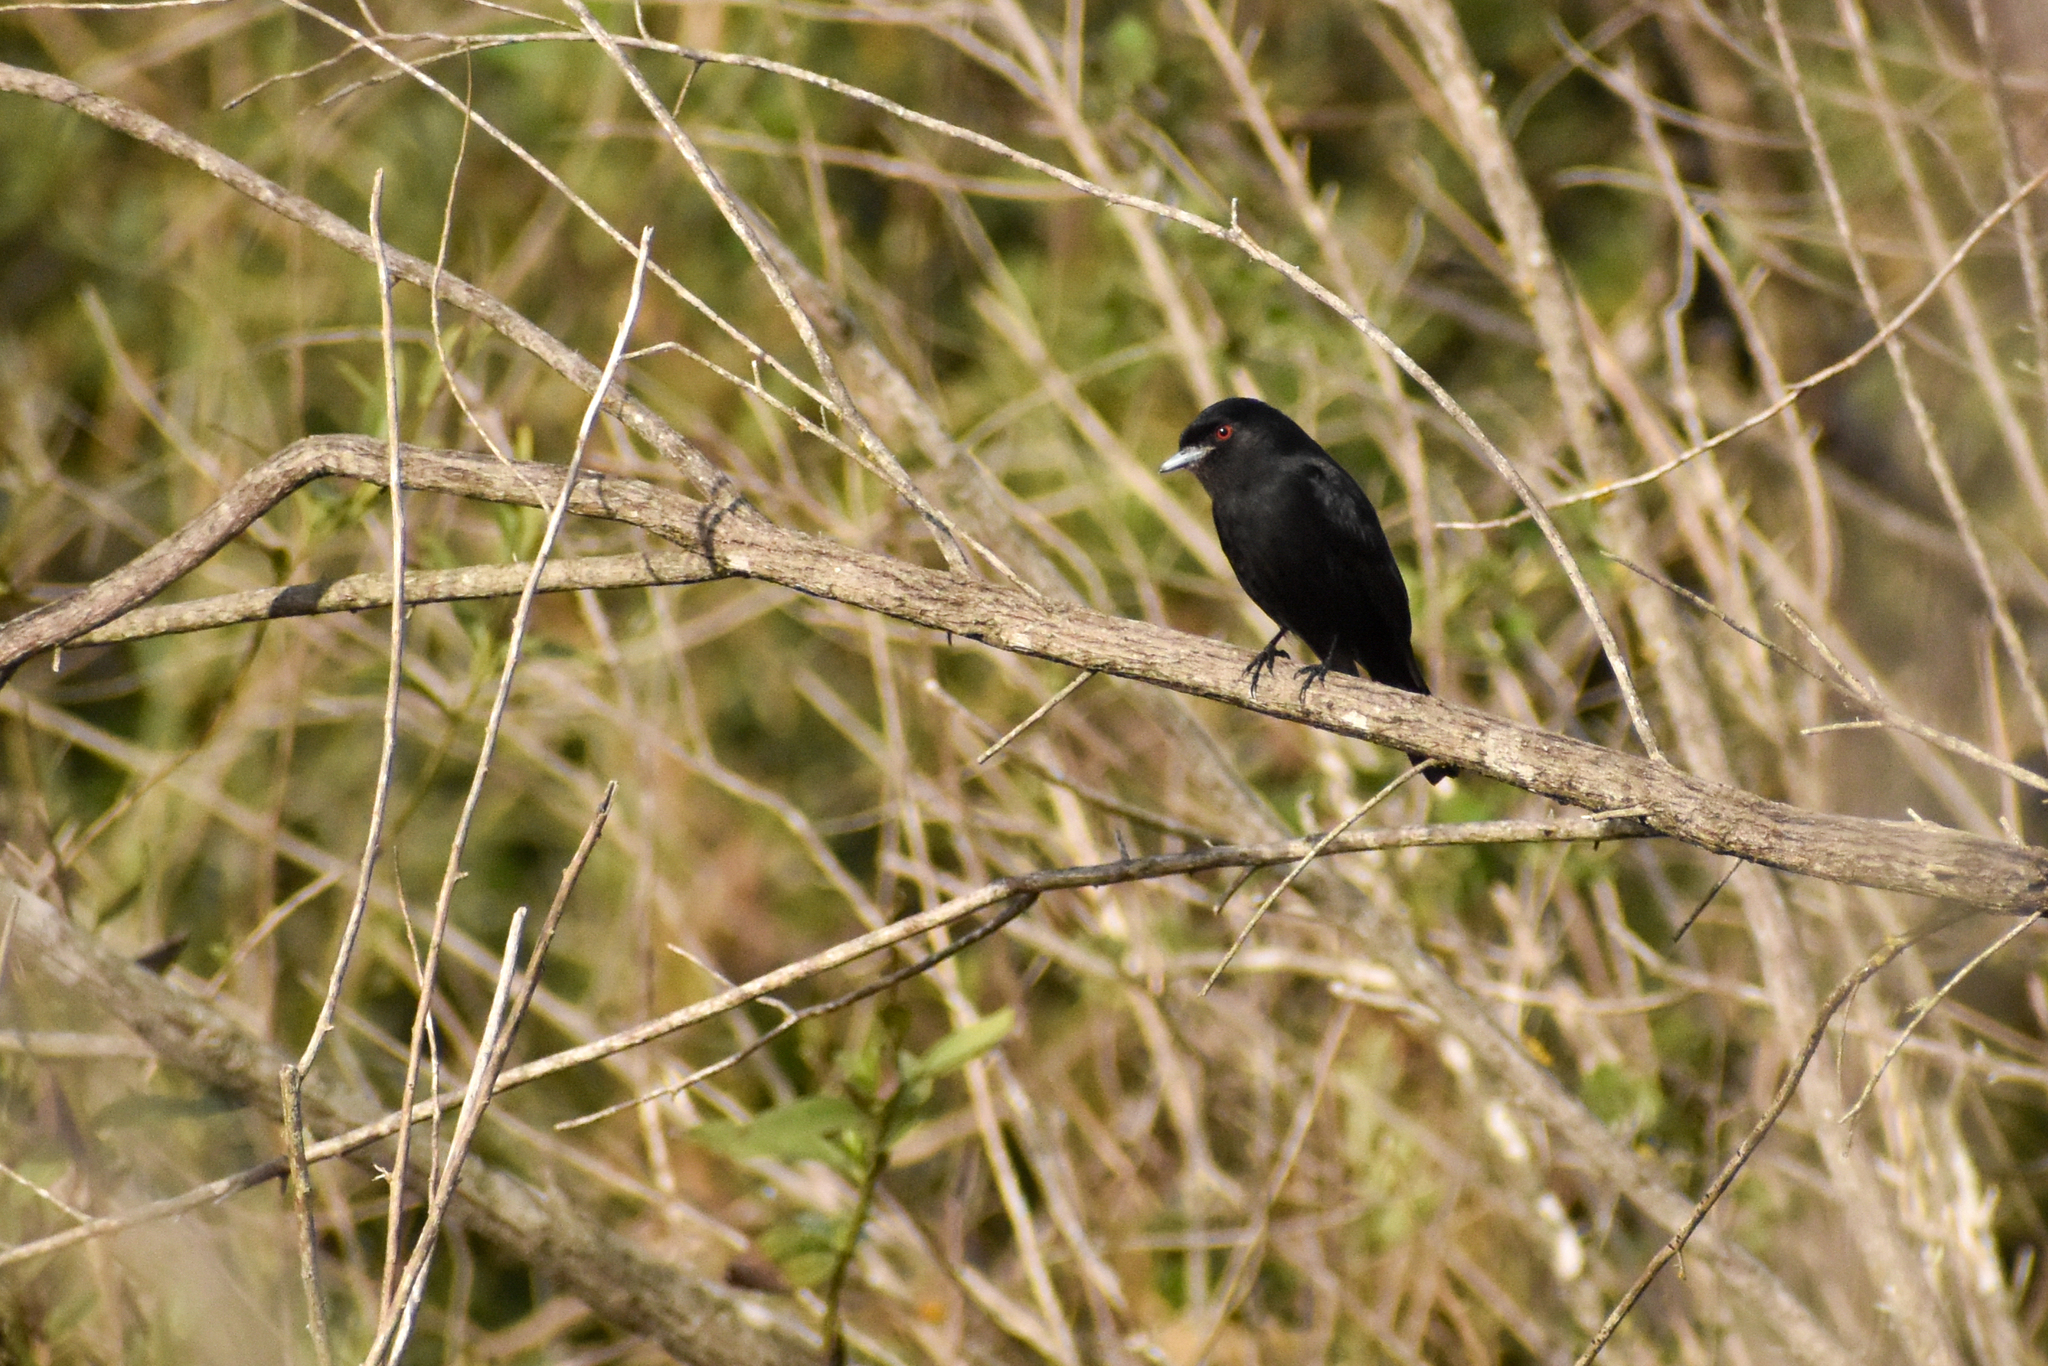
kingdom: Animalia
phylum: Chordata
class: Aves
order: Passeriformes
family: Tyrannidae
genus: Knipolegus
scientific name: Knipolegus cyanirostris
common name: Blue-billed black tyrant
